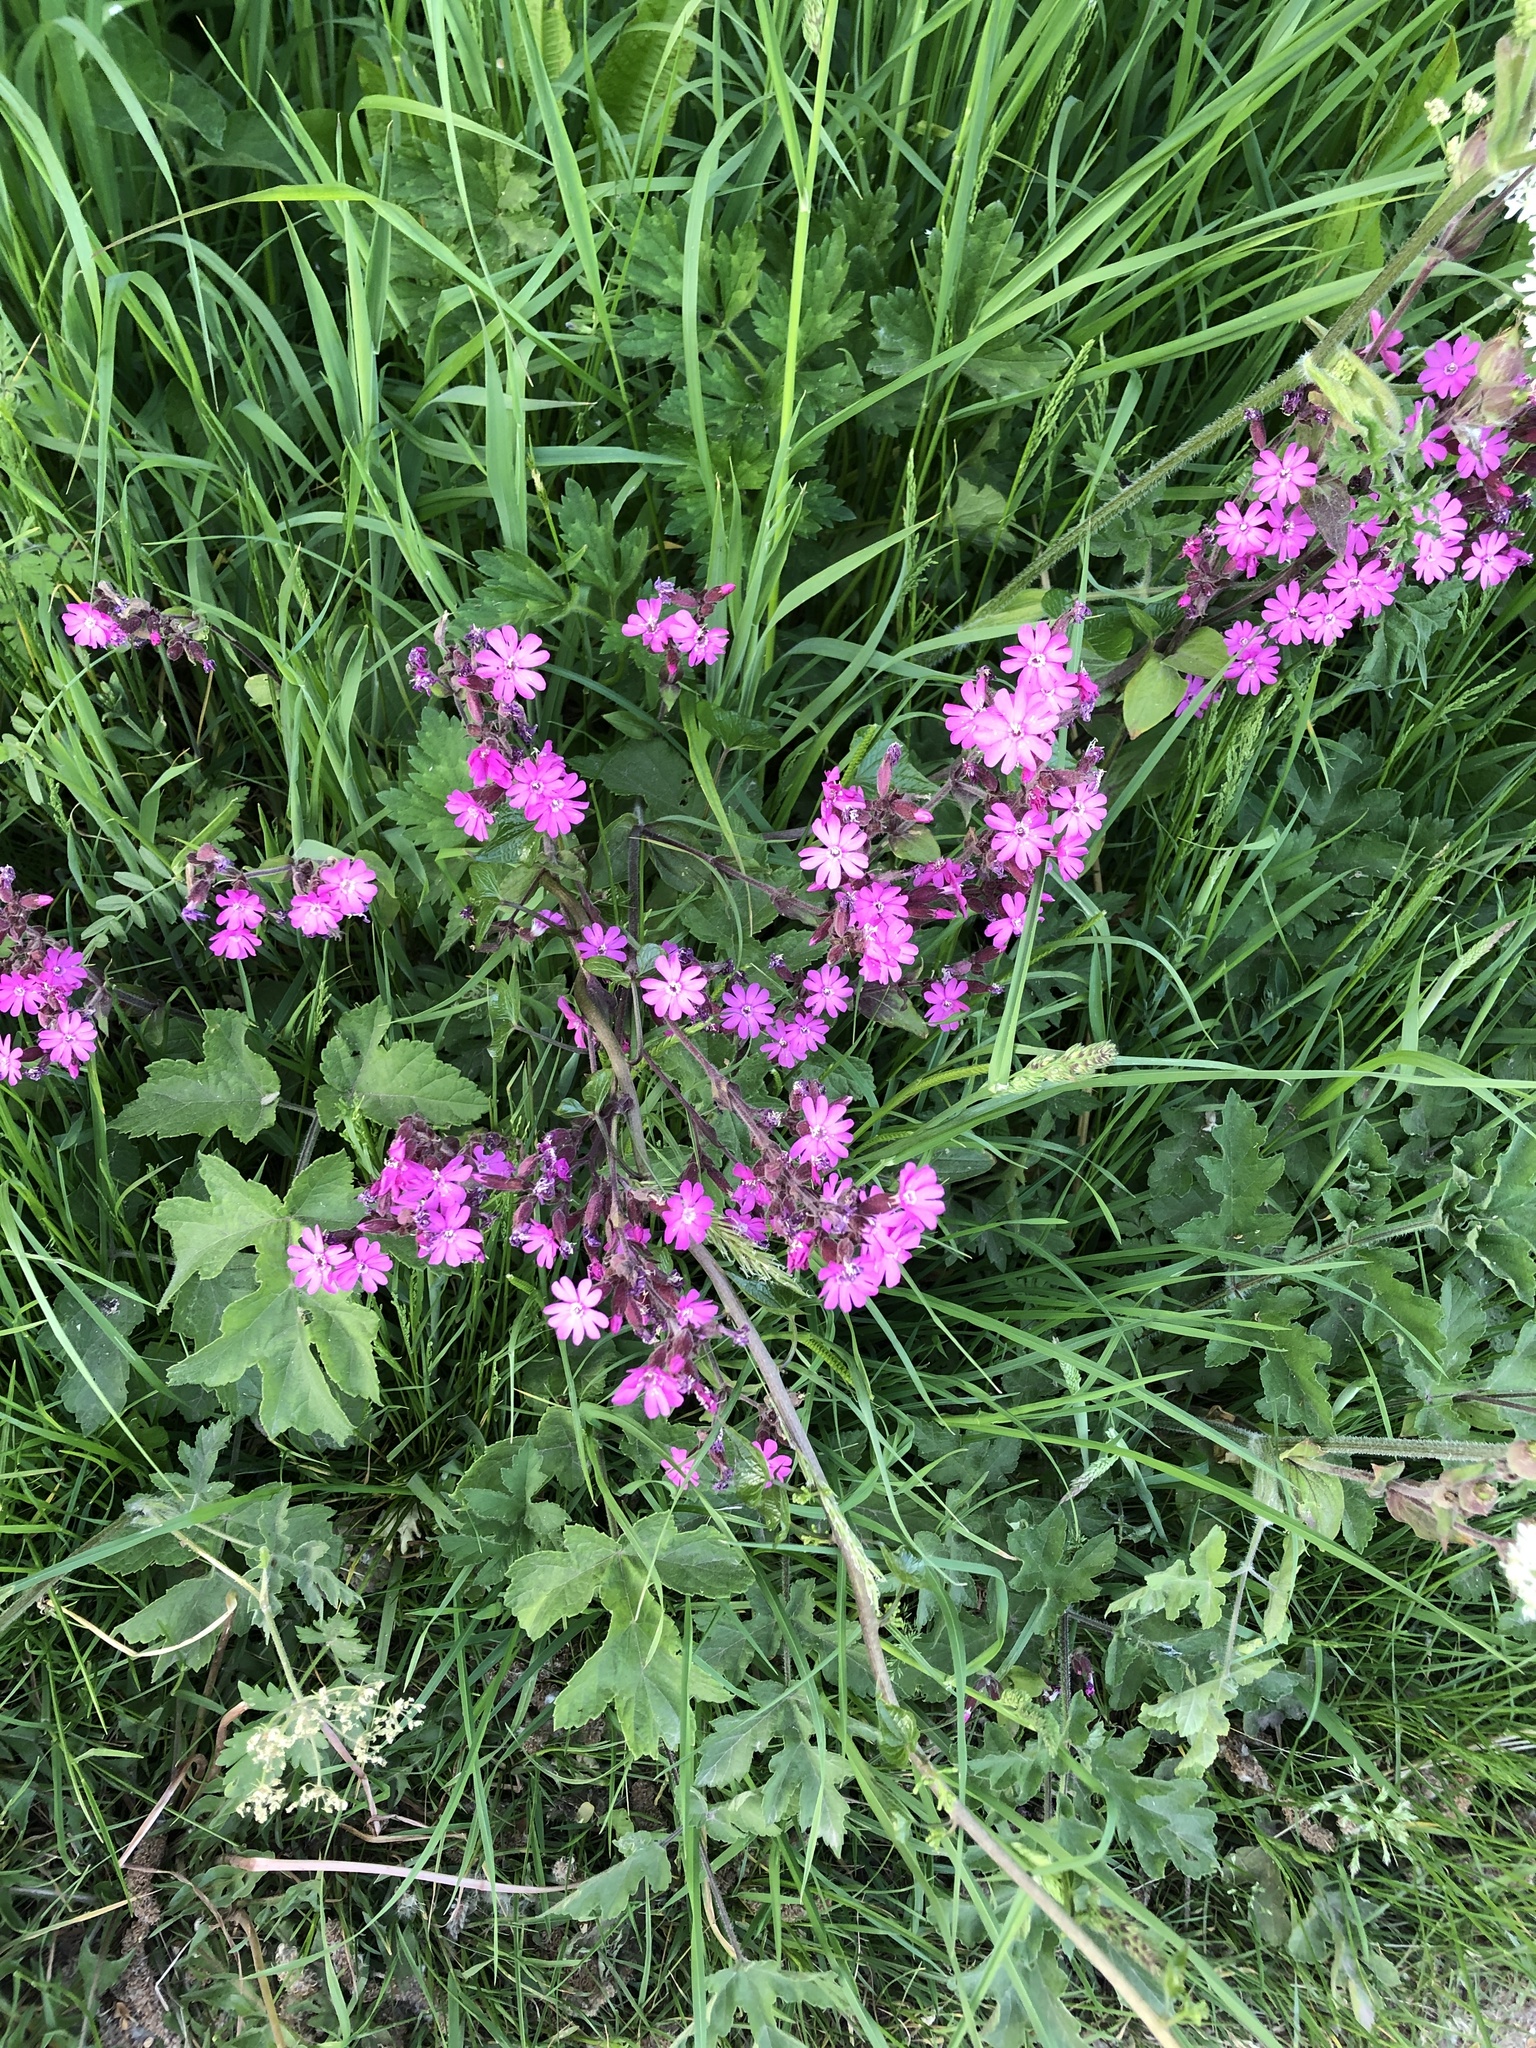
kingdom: Plantae
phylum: Tracheophyta
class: Magnoliopsida
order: Caryophyllales
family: Caryophyllaceae
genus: Silene
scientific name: Silene dioica
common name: Red campion
